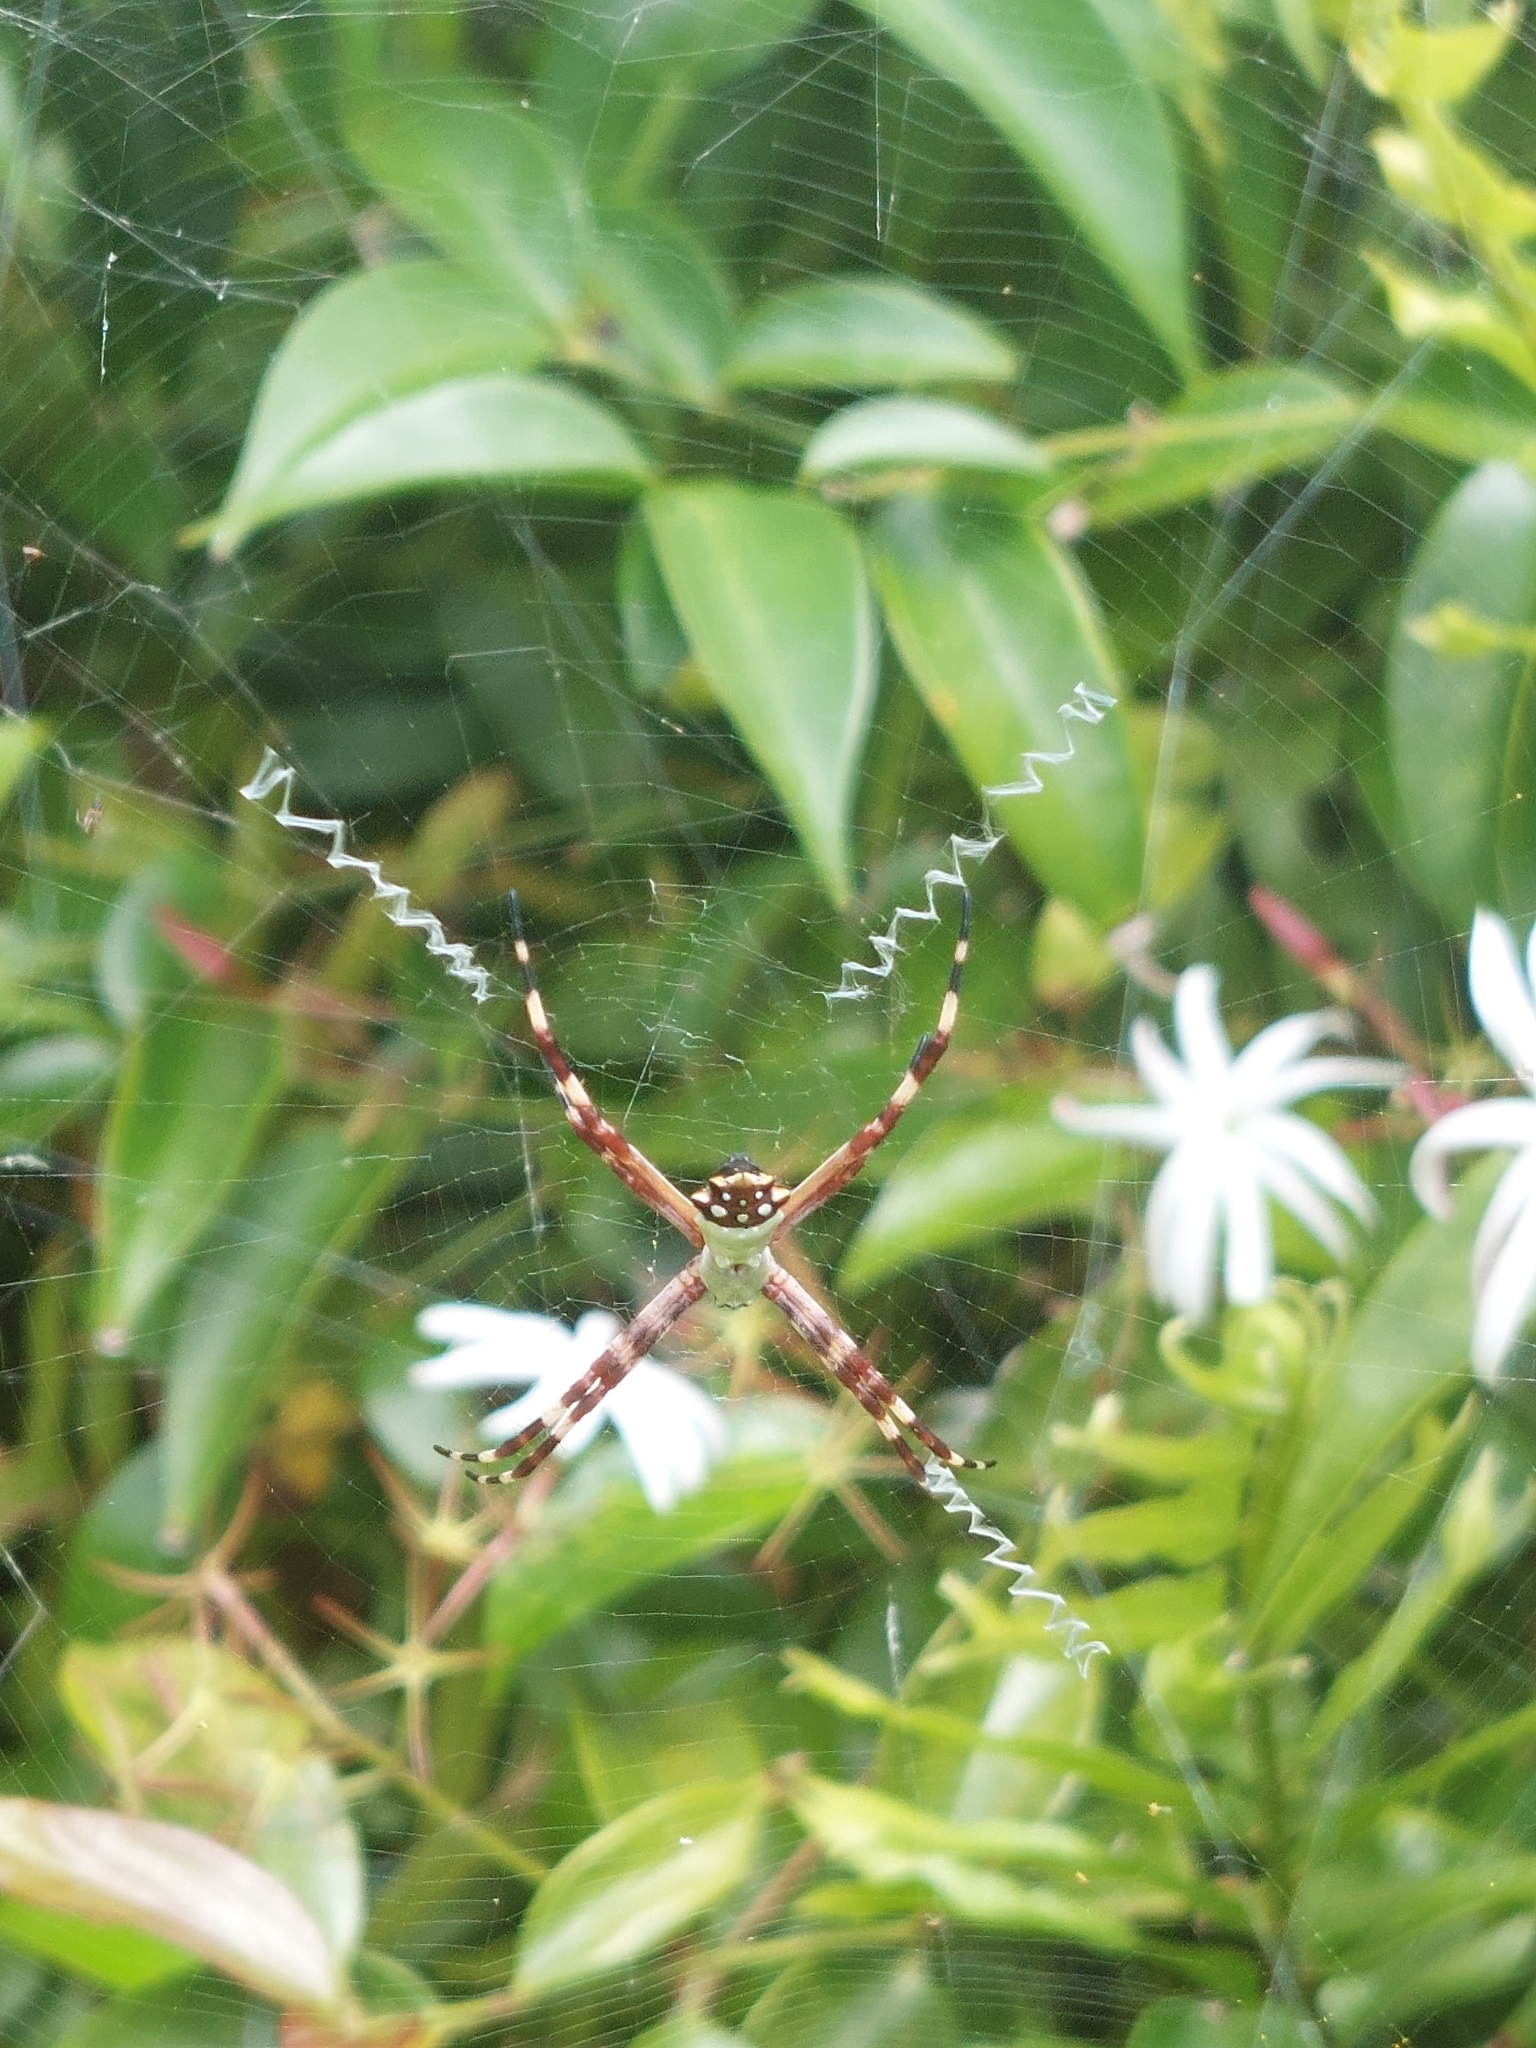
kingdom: Animalia
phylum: Arthropoda
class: Arachnida
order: Araneae
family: Araneidae
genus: Argiope
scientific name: Argiope argentata
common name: Orb weavers
